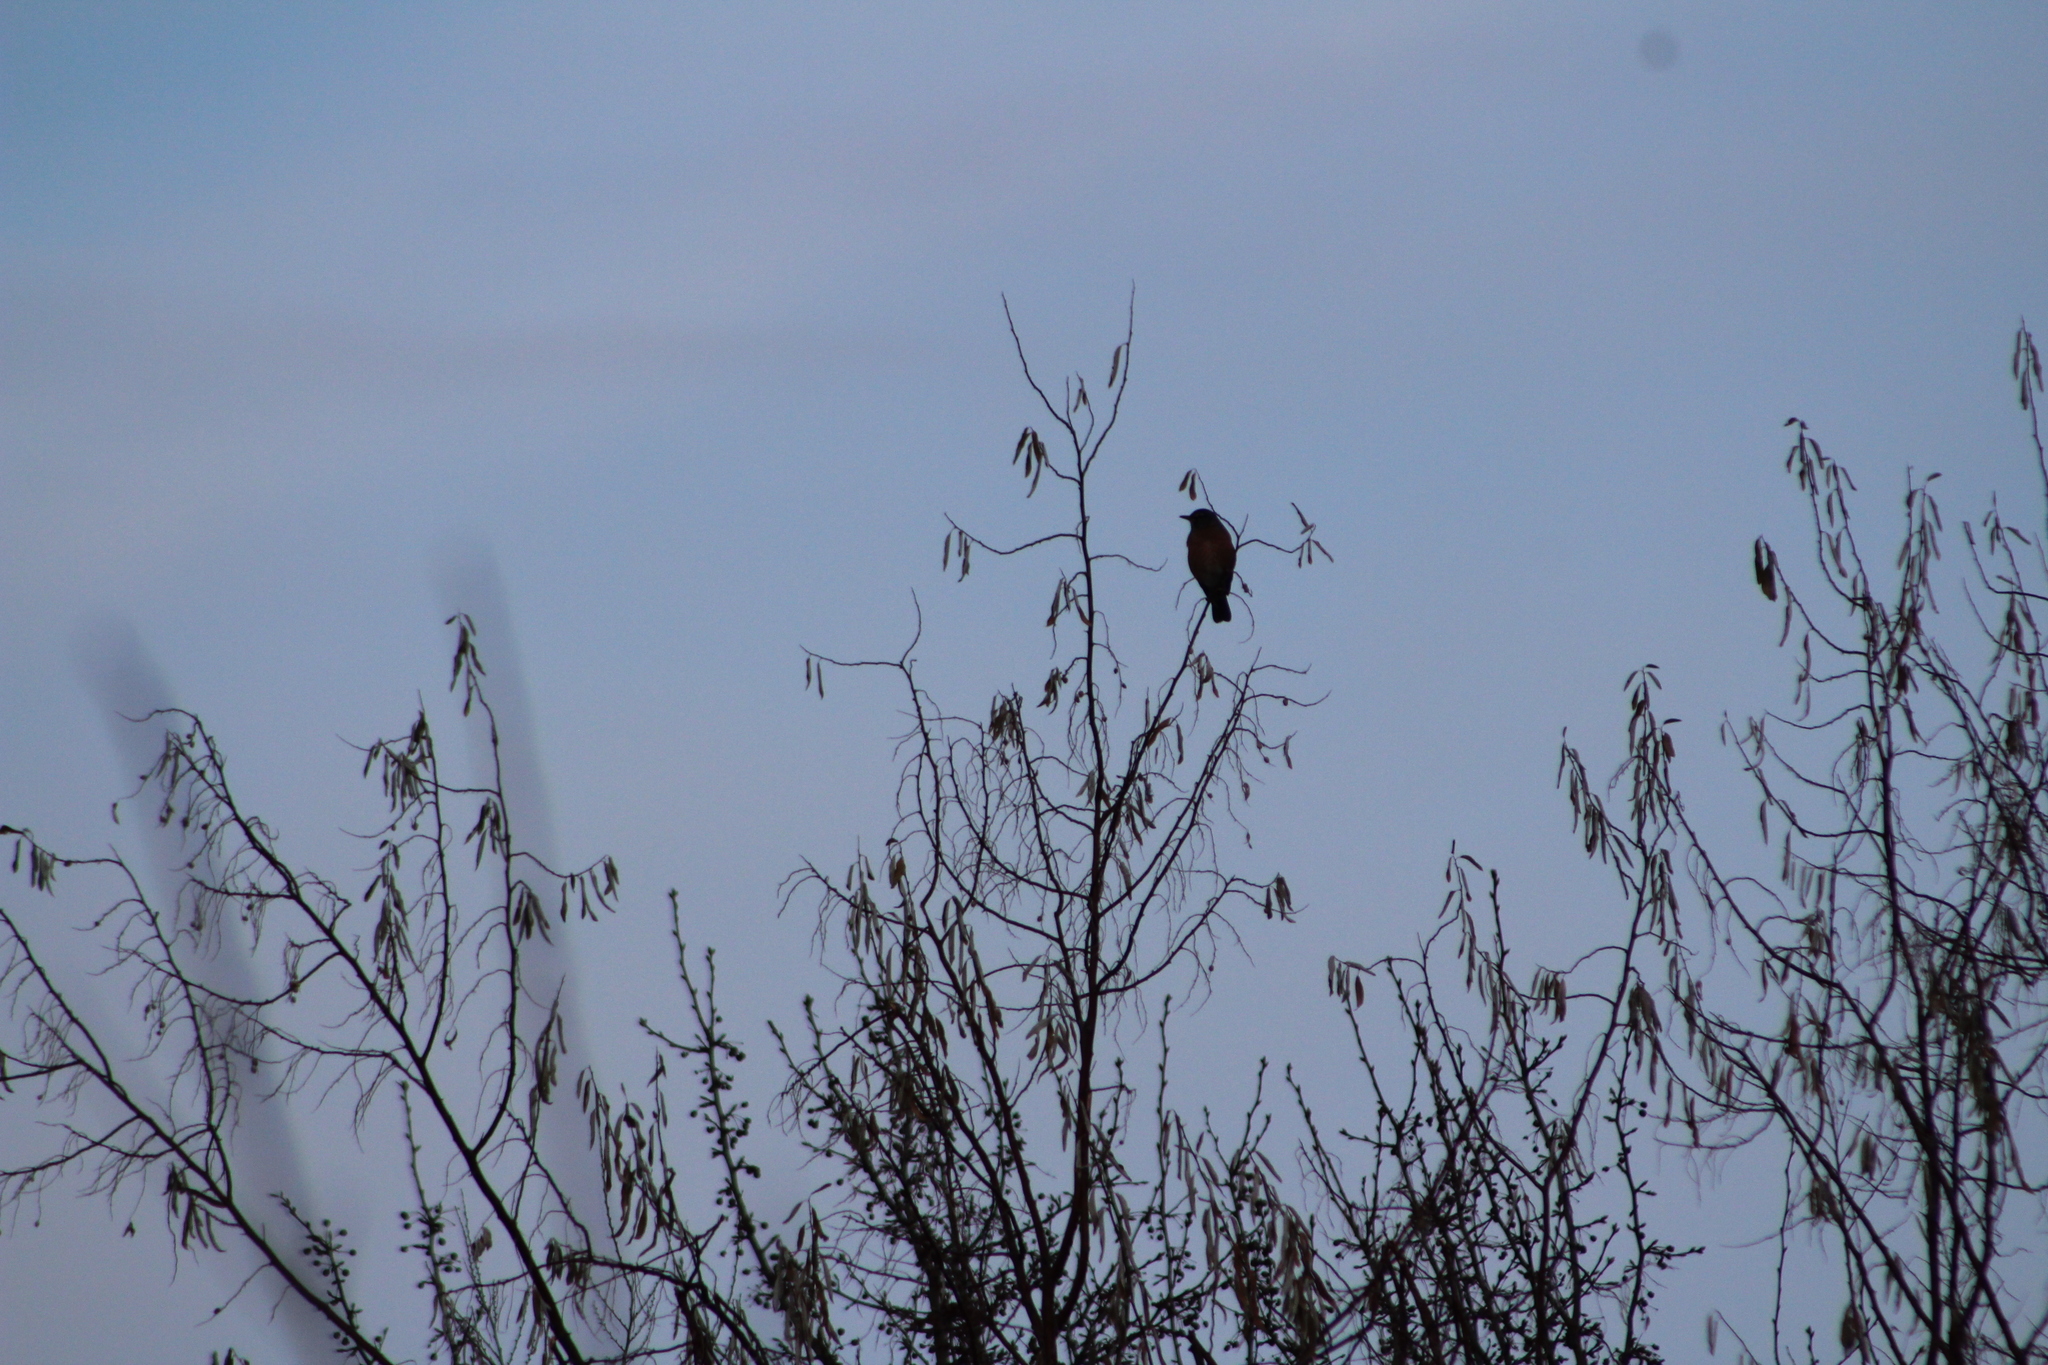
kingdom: Animalia
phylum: Chordata
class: Aves
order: Passeriformes
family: Turdidae
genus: Turdus
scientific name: Turdus migratorius
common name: American robin
